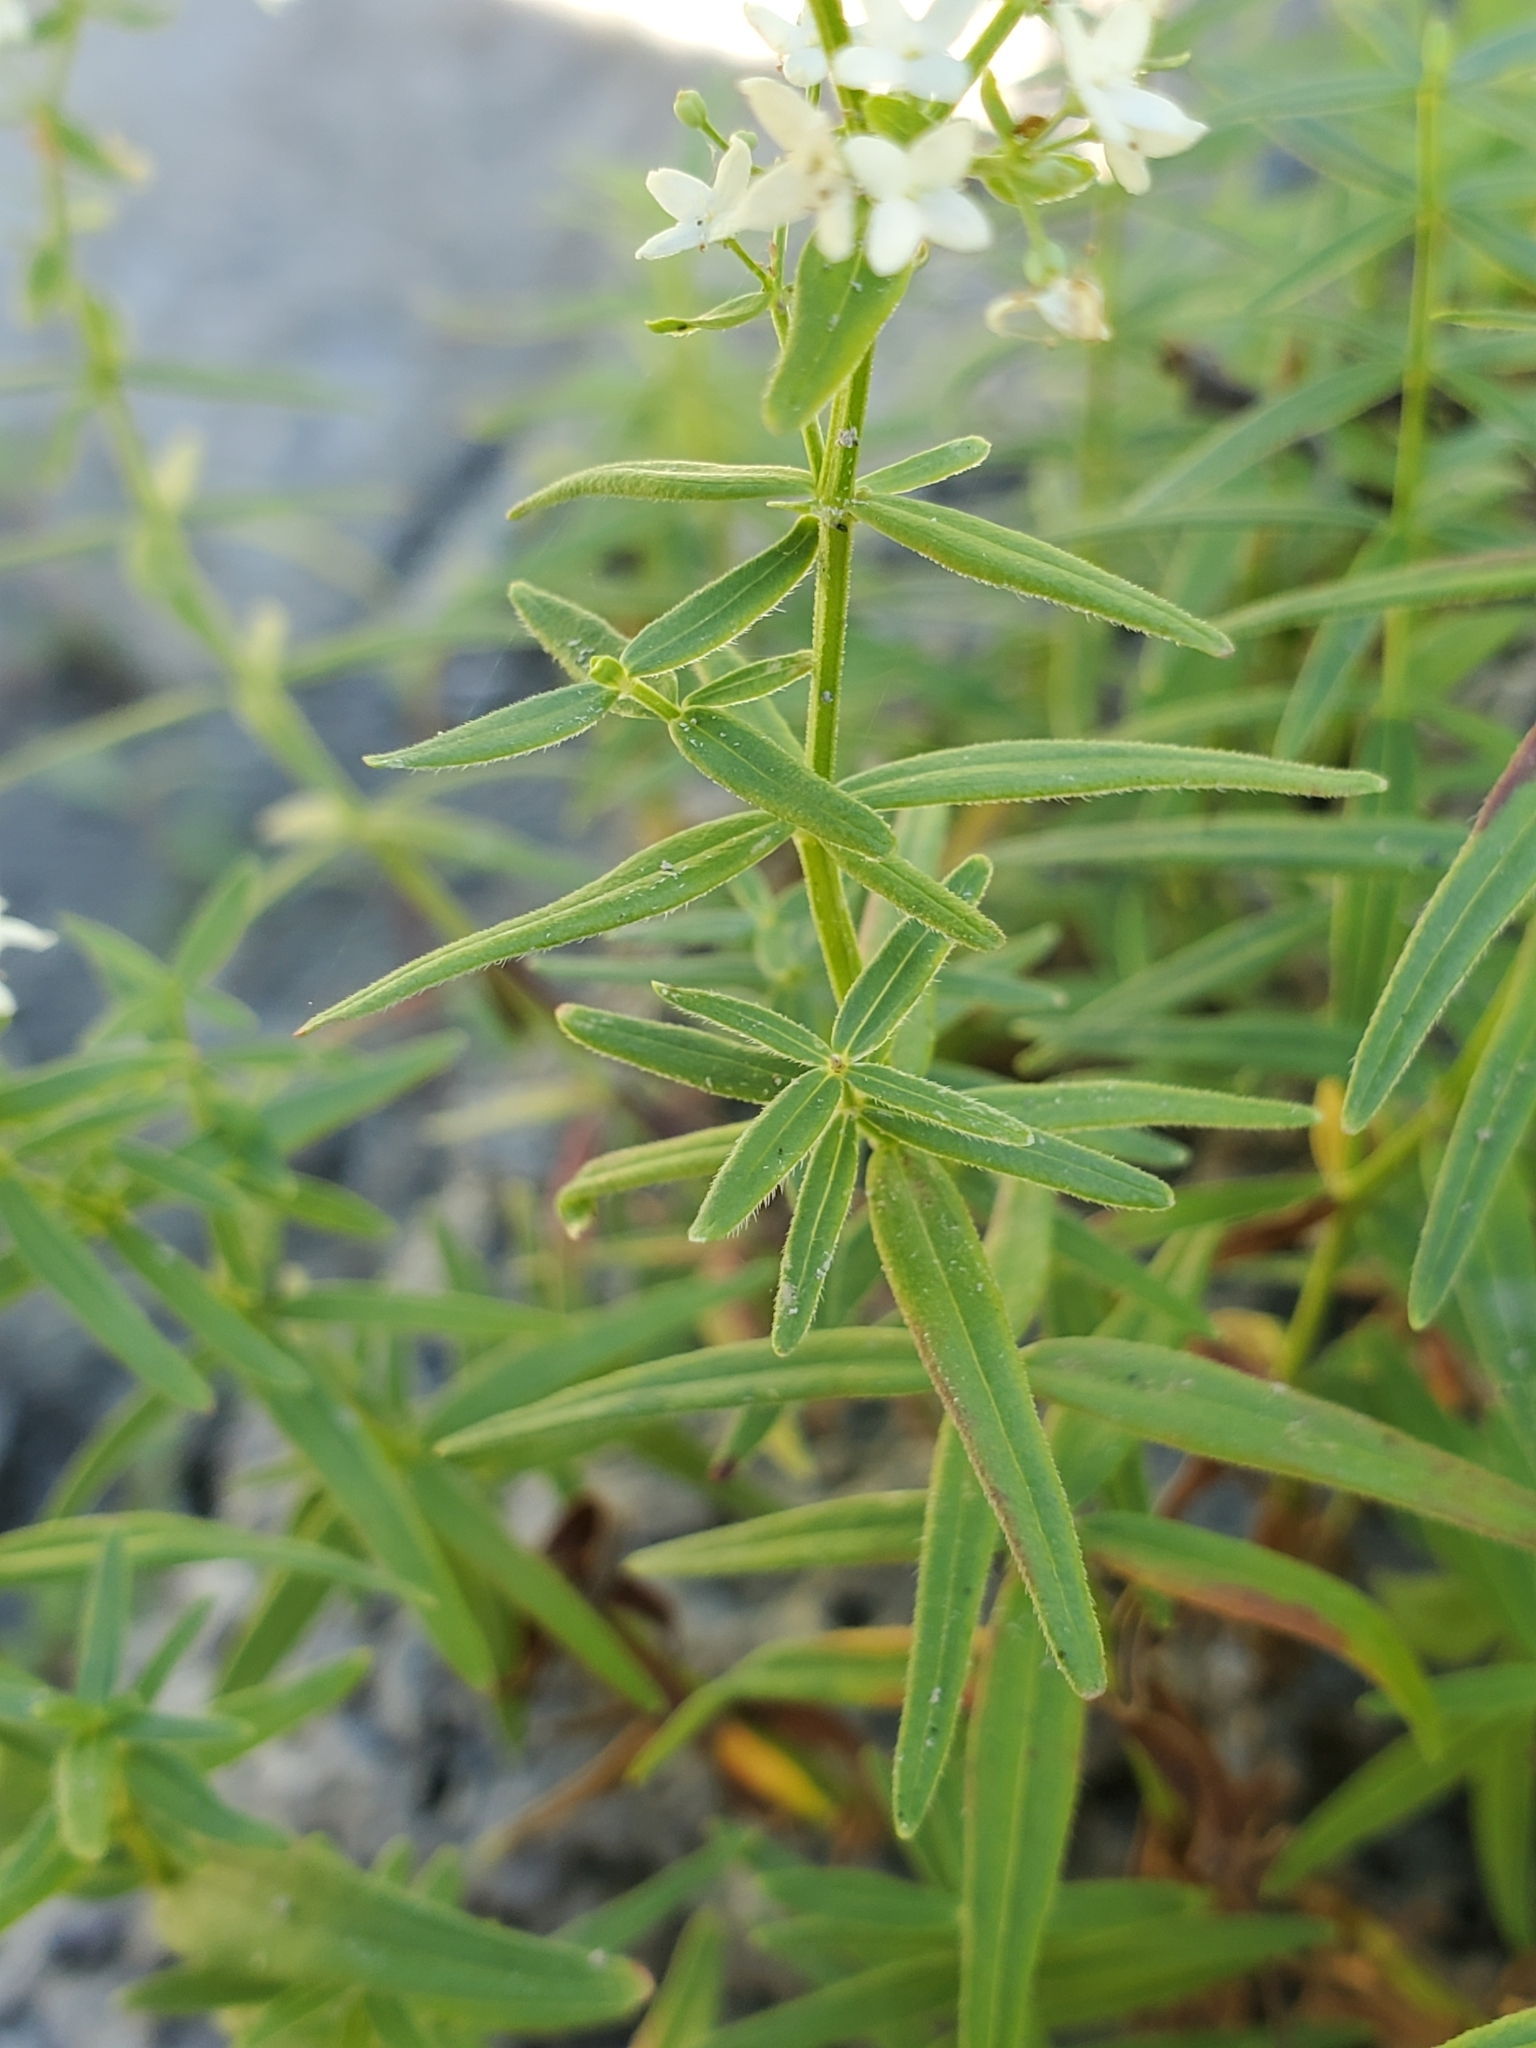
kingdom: Plantae
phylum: Tracheophyta
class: Magnoliopsida
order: Gentianales
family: Rubiaceae
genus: Galium
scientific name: Galium boreale
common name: Northern bedstraw
